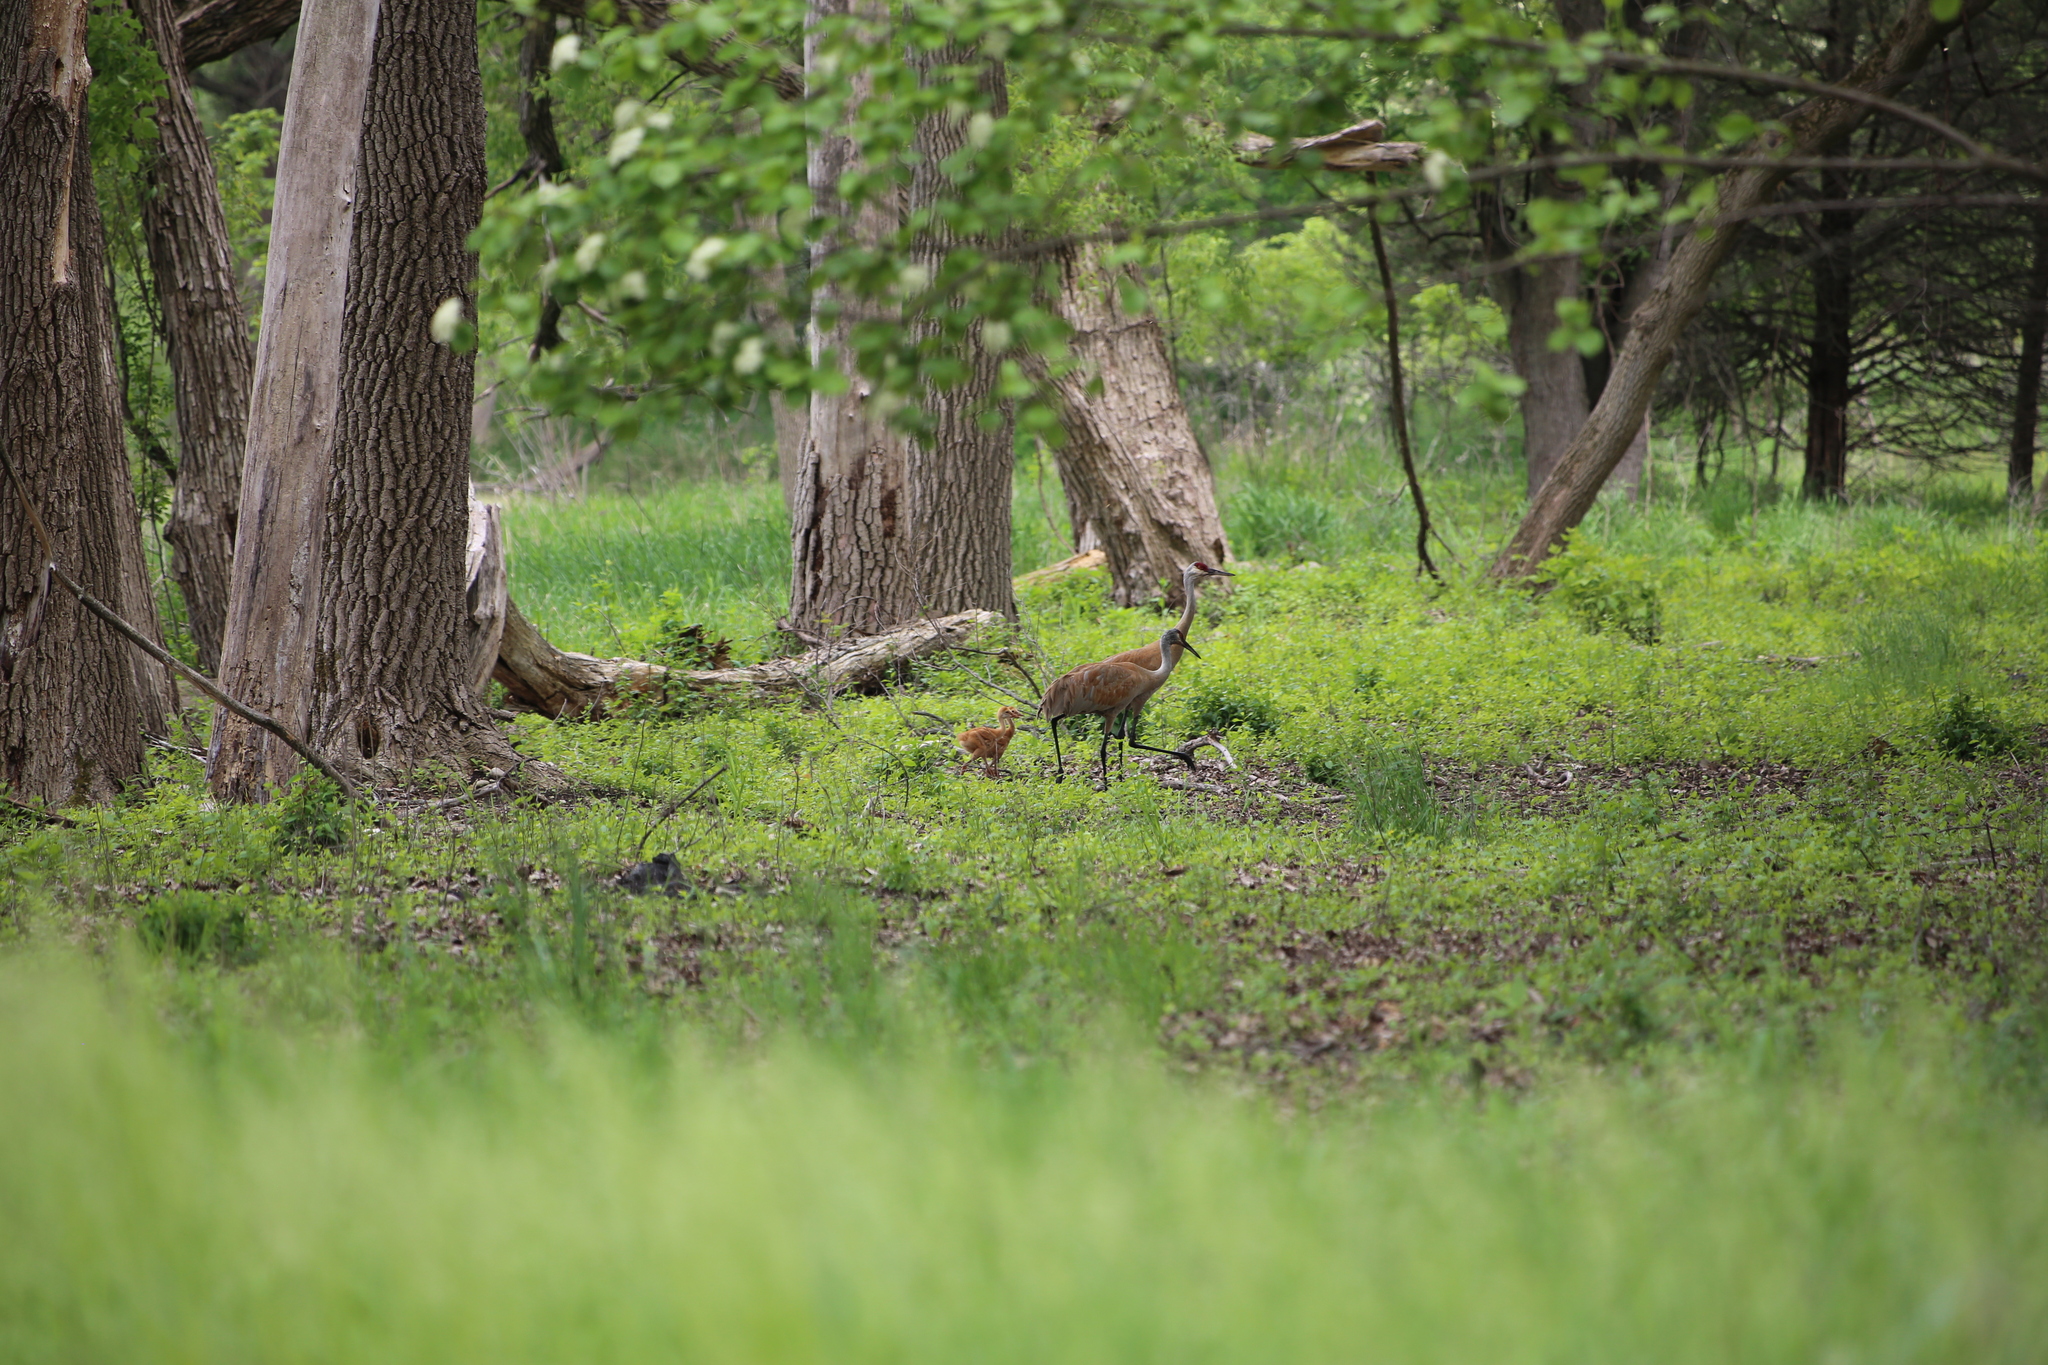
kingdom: Animalia
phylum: Chordata
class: Aves
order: Gruiformes
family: Gruidae
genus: Grus
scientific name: Grus canadensis
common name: Sandhill crane
